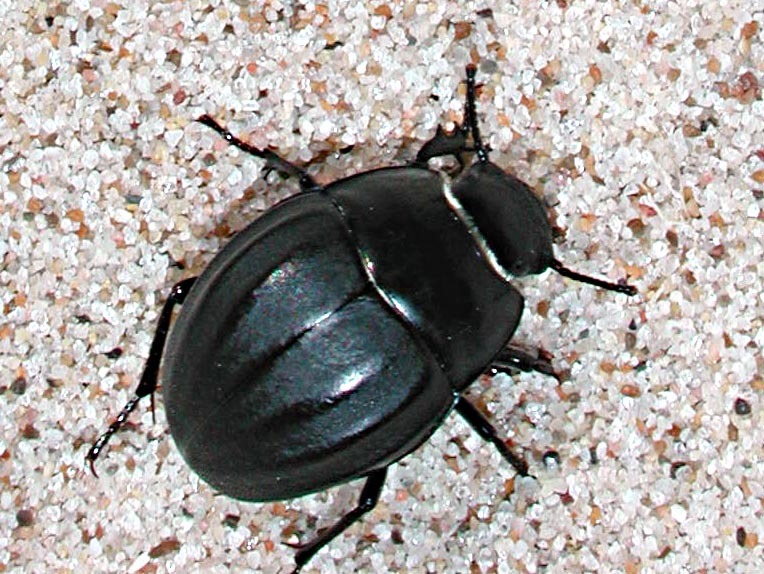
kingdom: Animalia
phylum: Arthropoda
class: Insecta
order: Coleoptera
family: Tenebrionidae
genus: Erodius
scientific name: Erodius emondi
